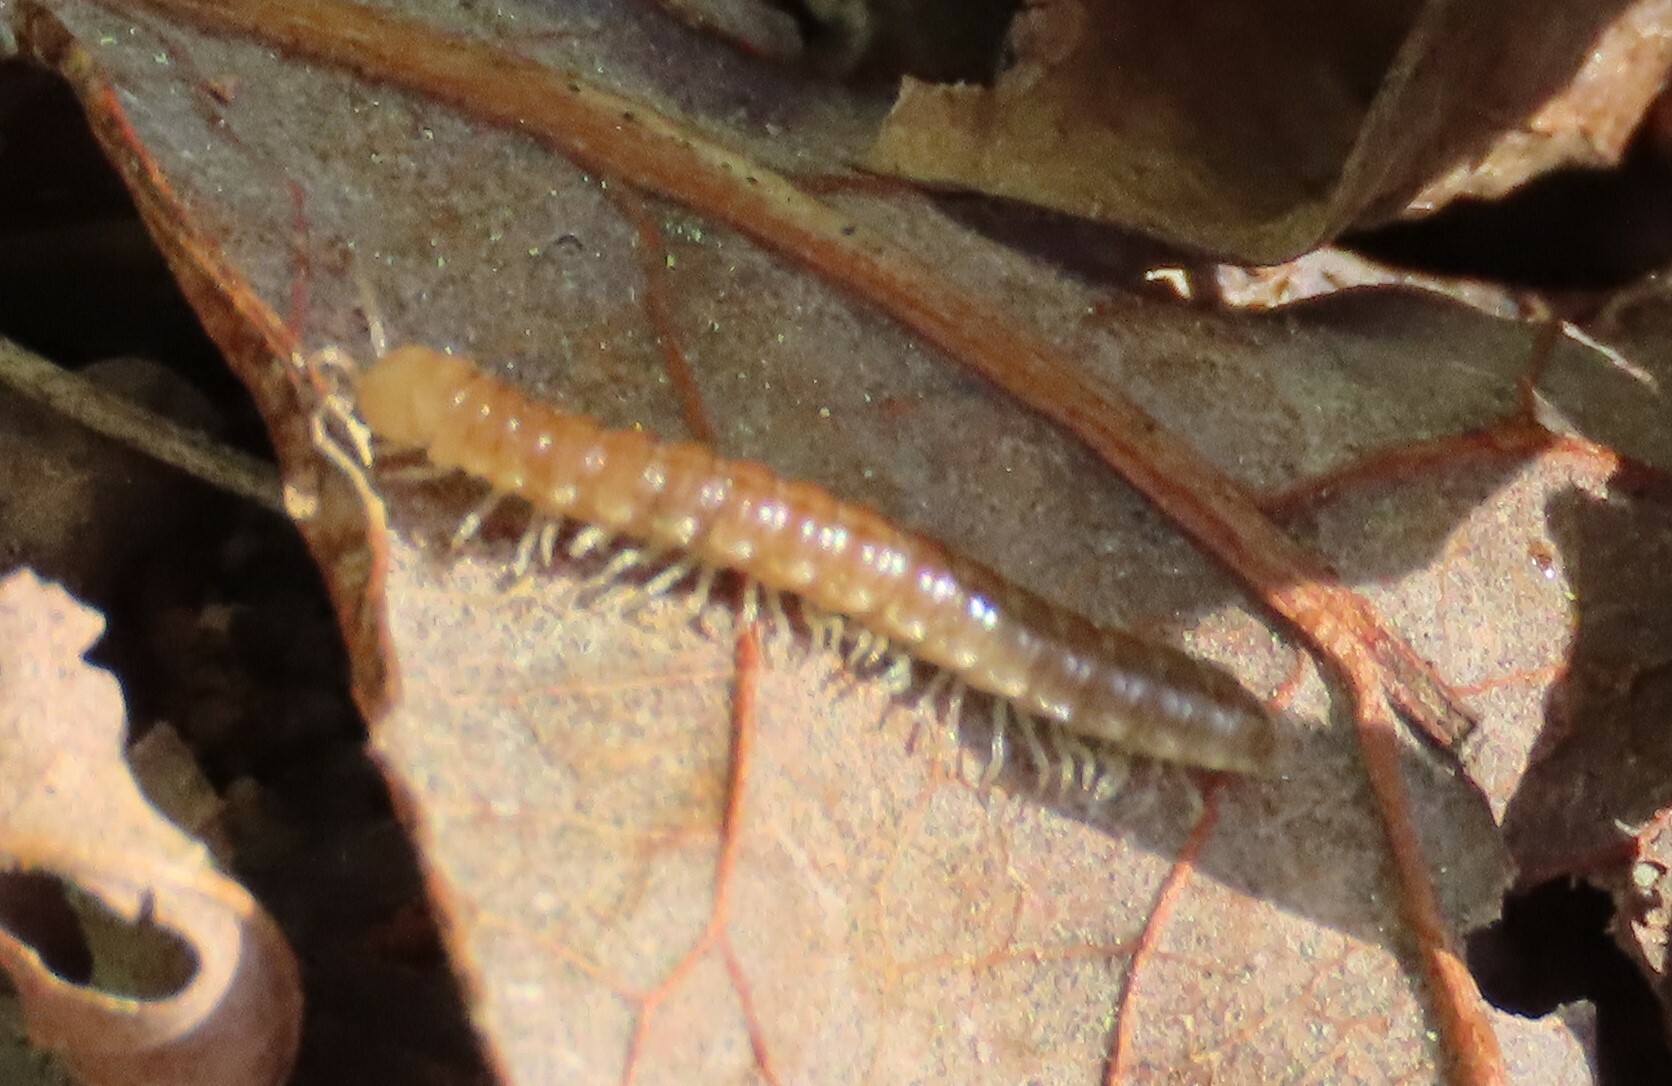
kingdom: Animalia
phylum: Arthropoda
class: Diplopoda
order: Polydesmida
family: Paradoxosomatidae
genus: Oxidus
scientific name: Oxidus gracilis
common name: Greenhouse millipede
